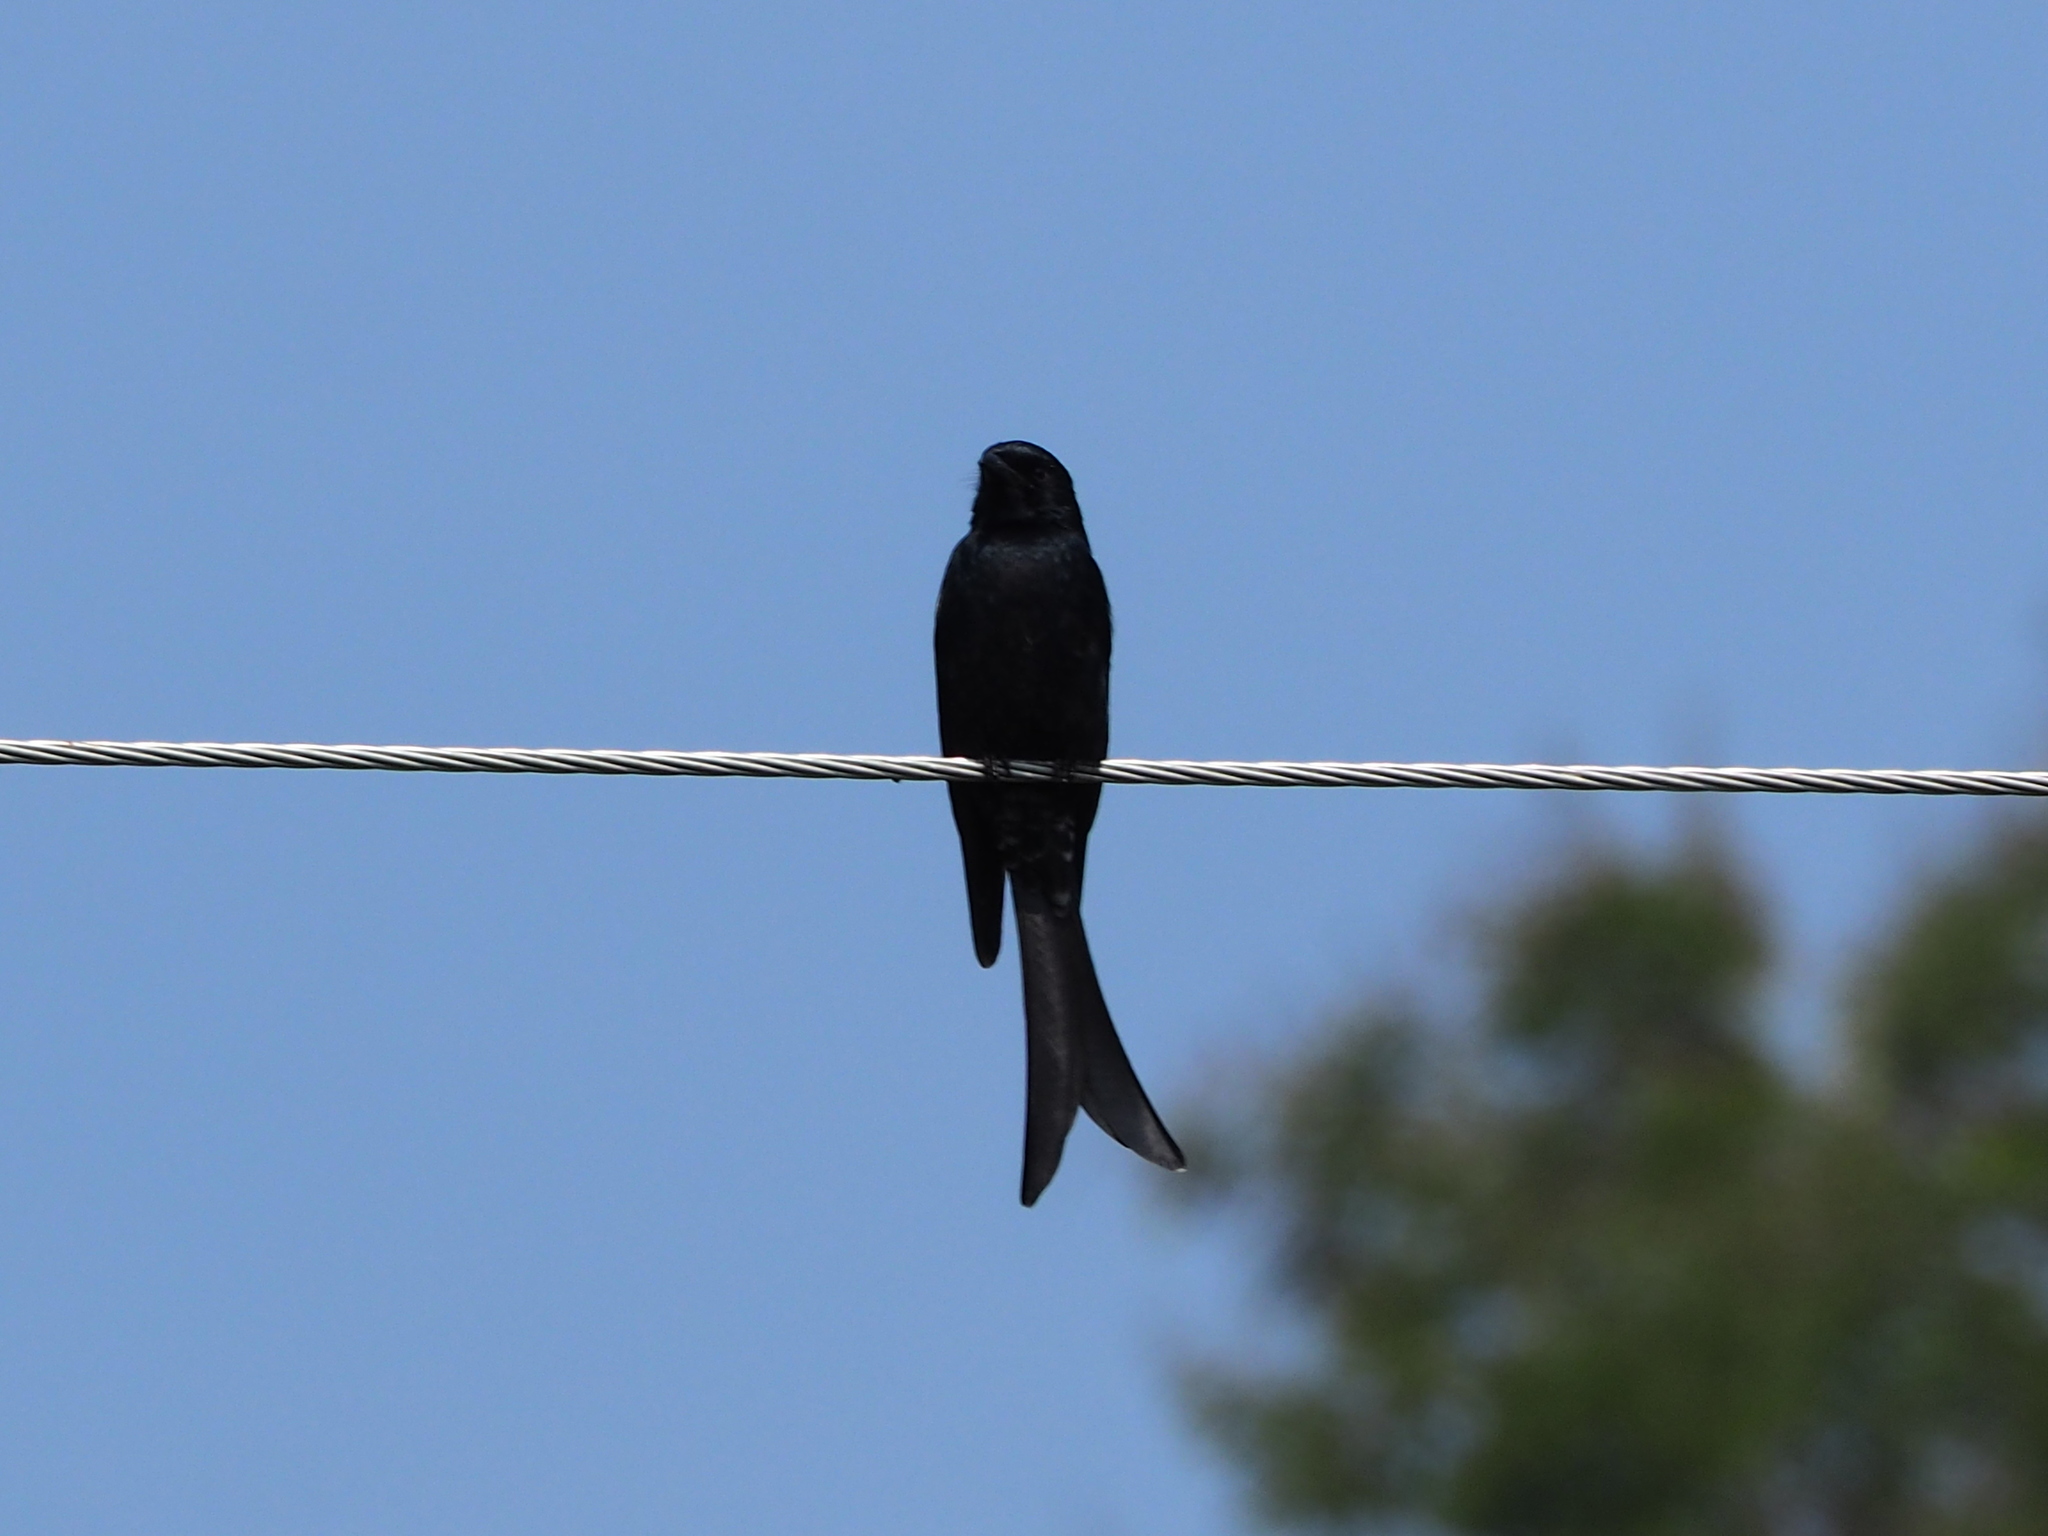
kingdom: Animalia
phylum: Chordata
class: Aves
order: Passeriformes
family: Dicruridae
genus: Dicrurus
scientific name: Dicrurus macrocercus
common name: Black drongo
